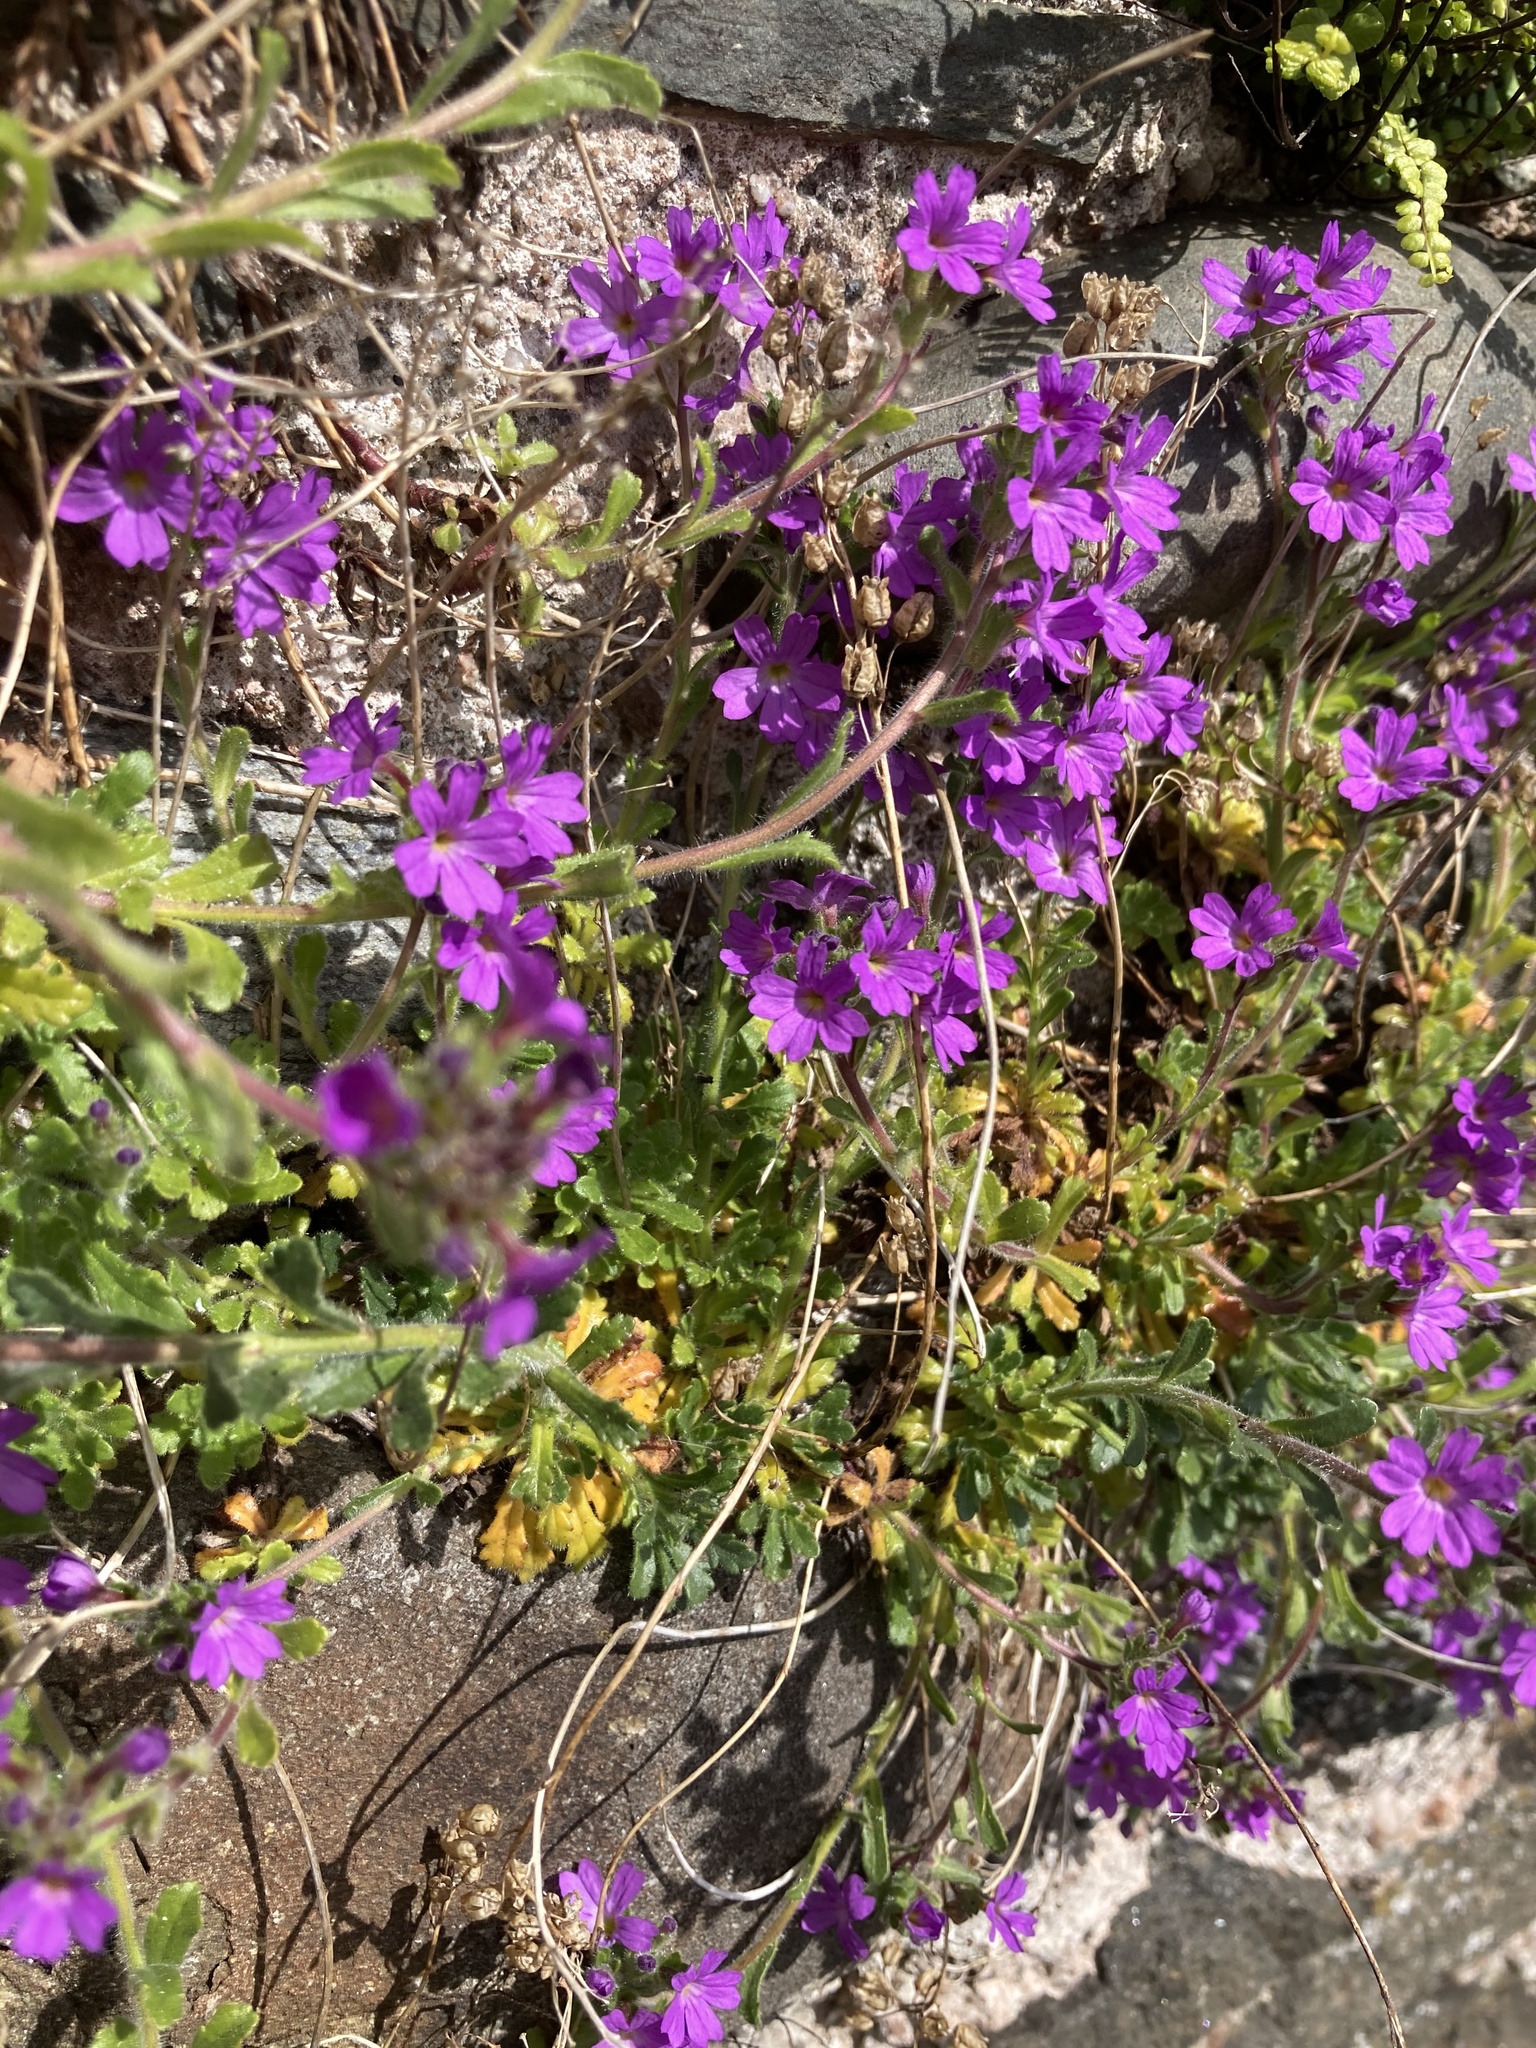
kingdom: Plantae
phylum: Tracheophyta
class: Magnoliopsida
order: Lamiales
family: Plantaginaceae
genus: Erinus
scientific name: Erinus alpinus
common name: Fairy foxglove
